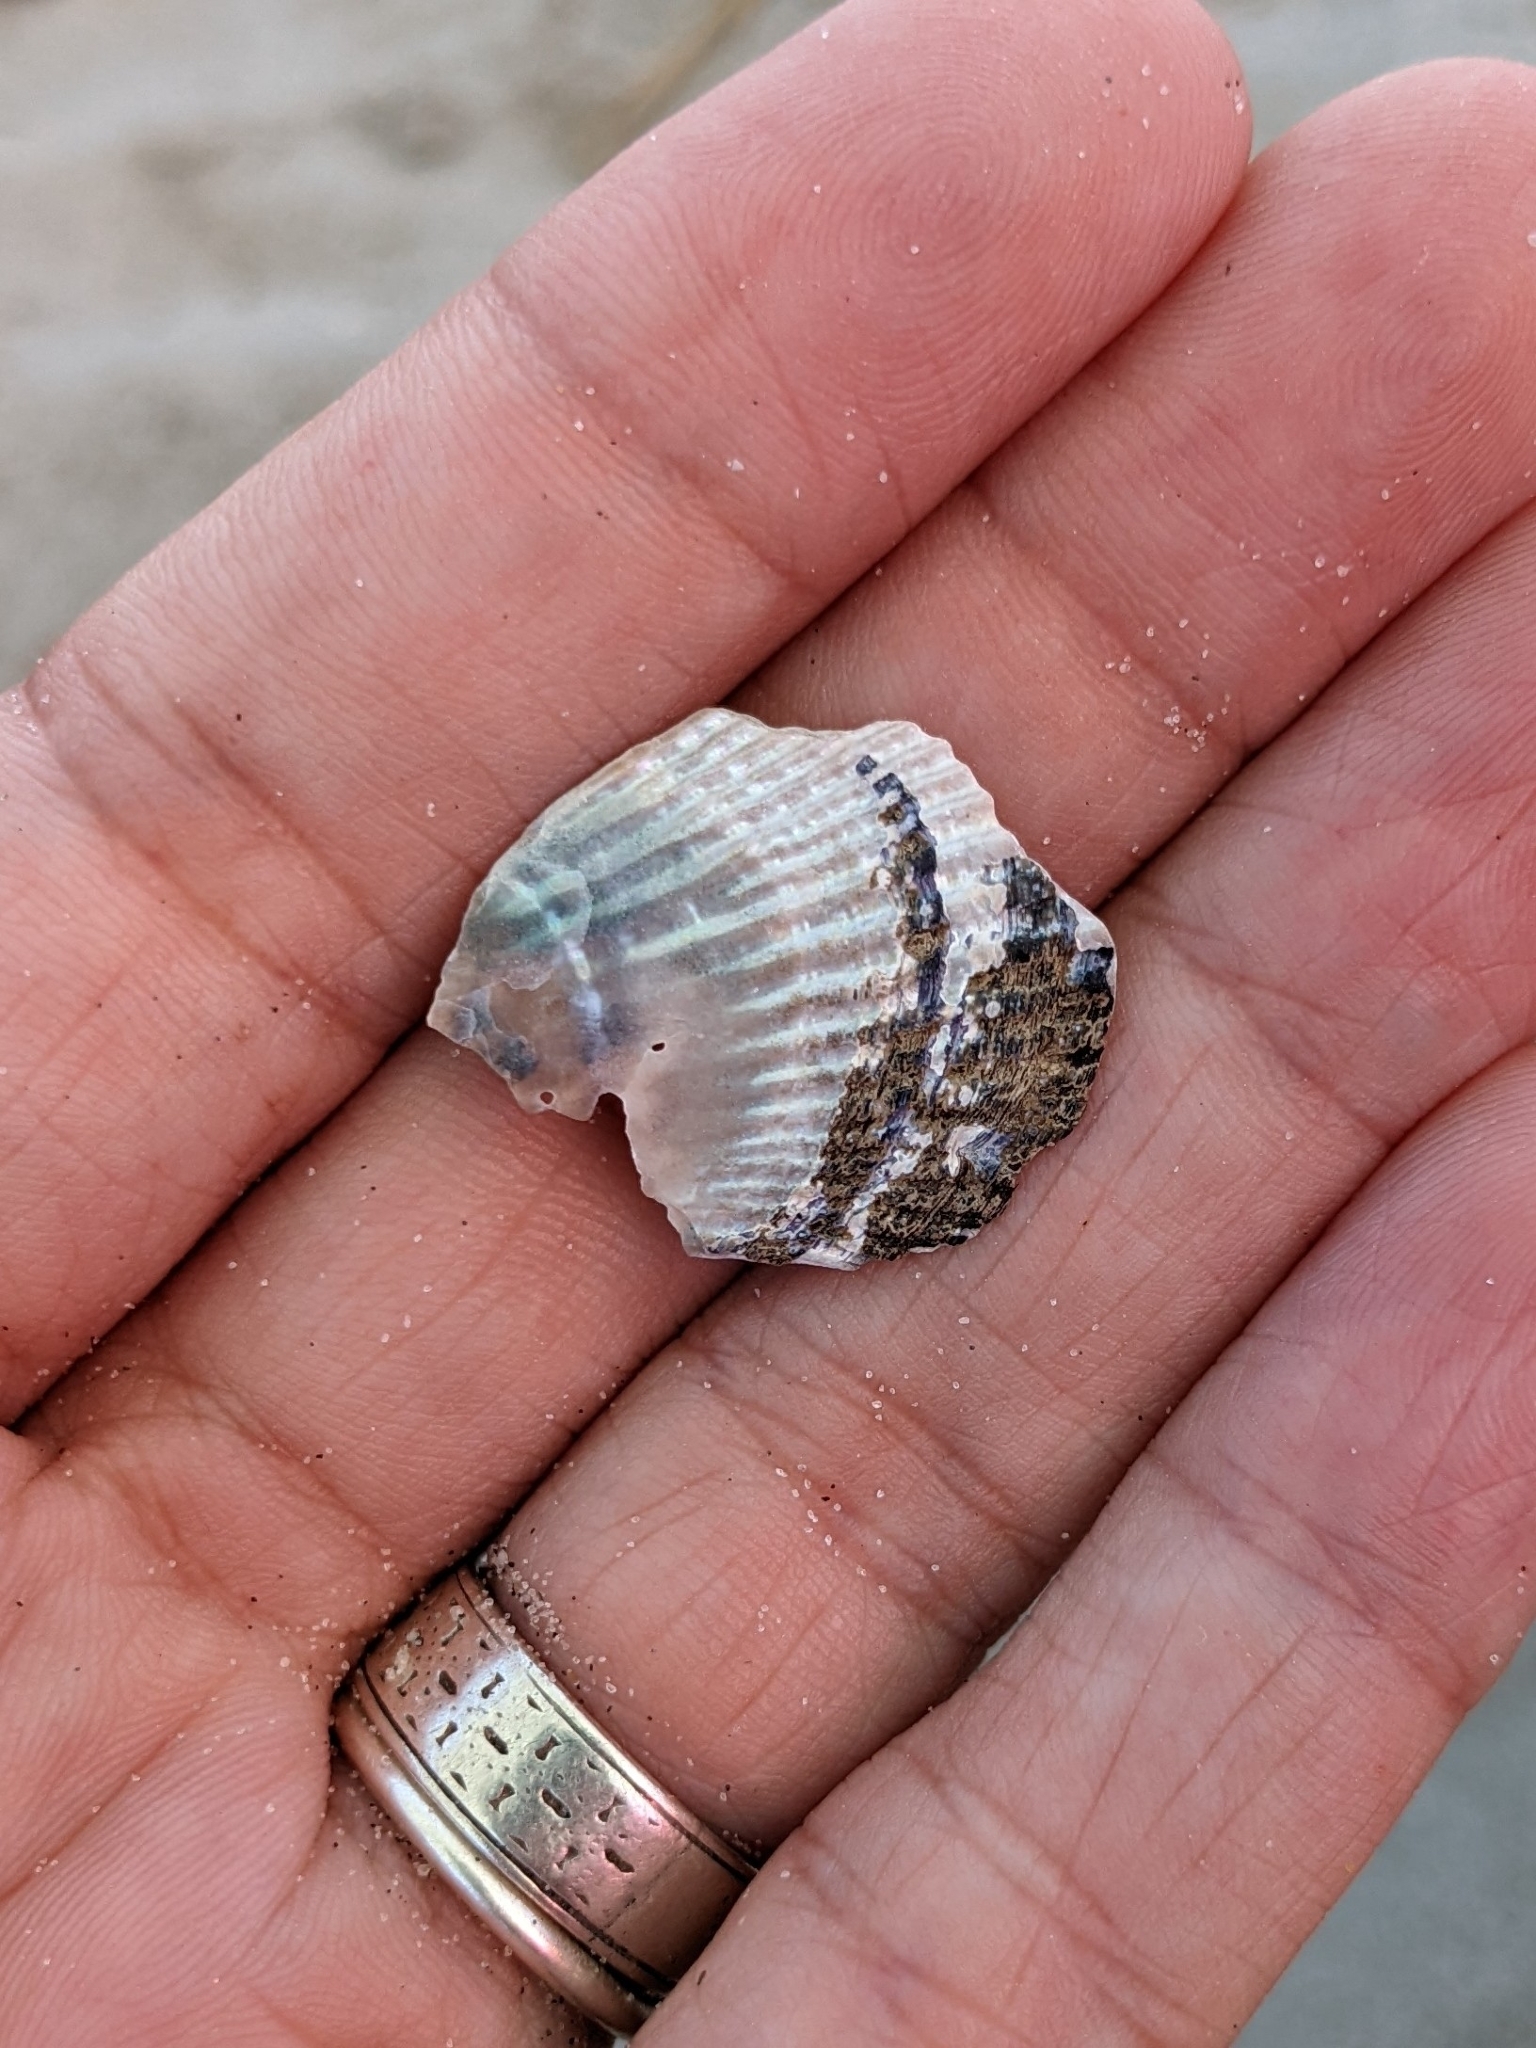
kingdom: Animalia
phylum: Mollusca
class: Bivalvia
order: Mytilida
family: Mytilidae
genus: Geukensia
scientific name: Geukensia demissa
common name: Ribbed mussel
